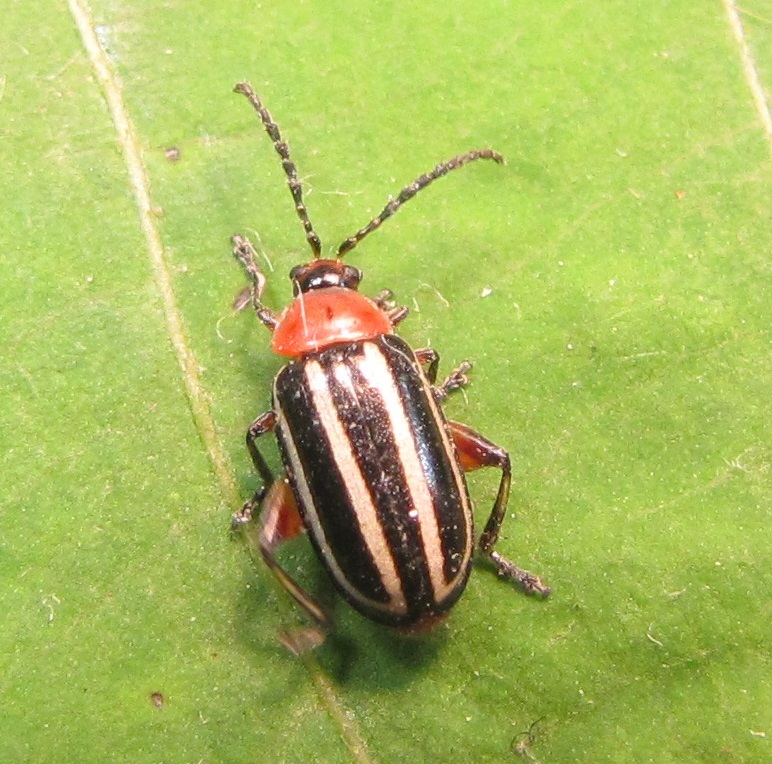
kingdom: Animalia
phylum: Arthropoda
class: Insecta
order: Coleoptera
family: Chrysomelidae
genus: Disonycha
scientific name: Disonycha glabrata
